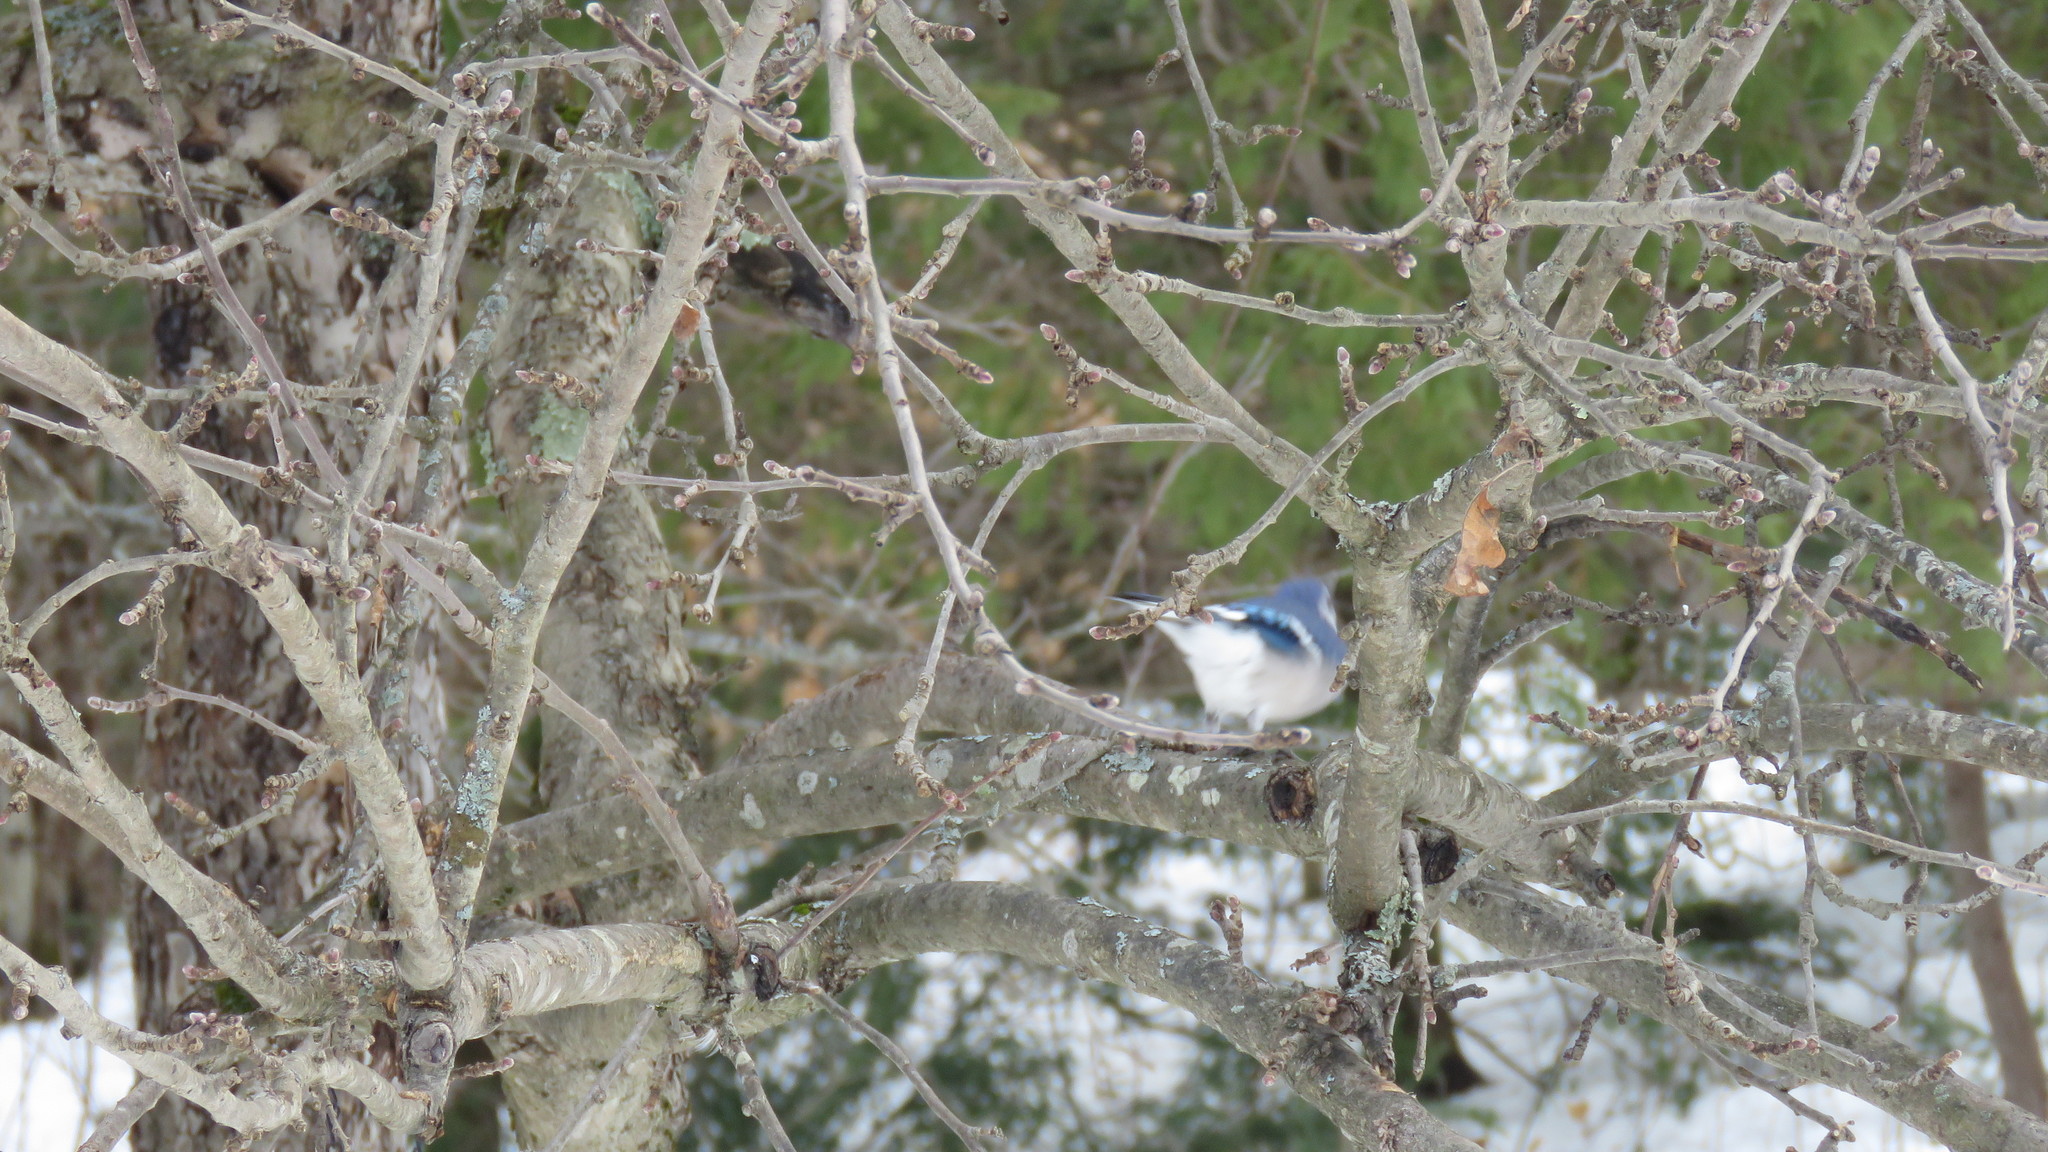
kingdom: Animalia
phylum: Chordata
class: Aves
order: Passeriformes
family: Corvidae
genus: Cyanocitta
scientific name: Cyanocitta cristata
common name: Blue jay
